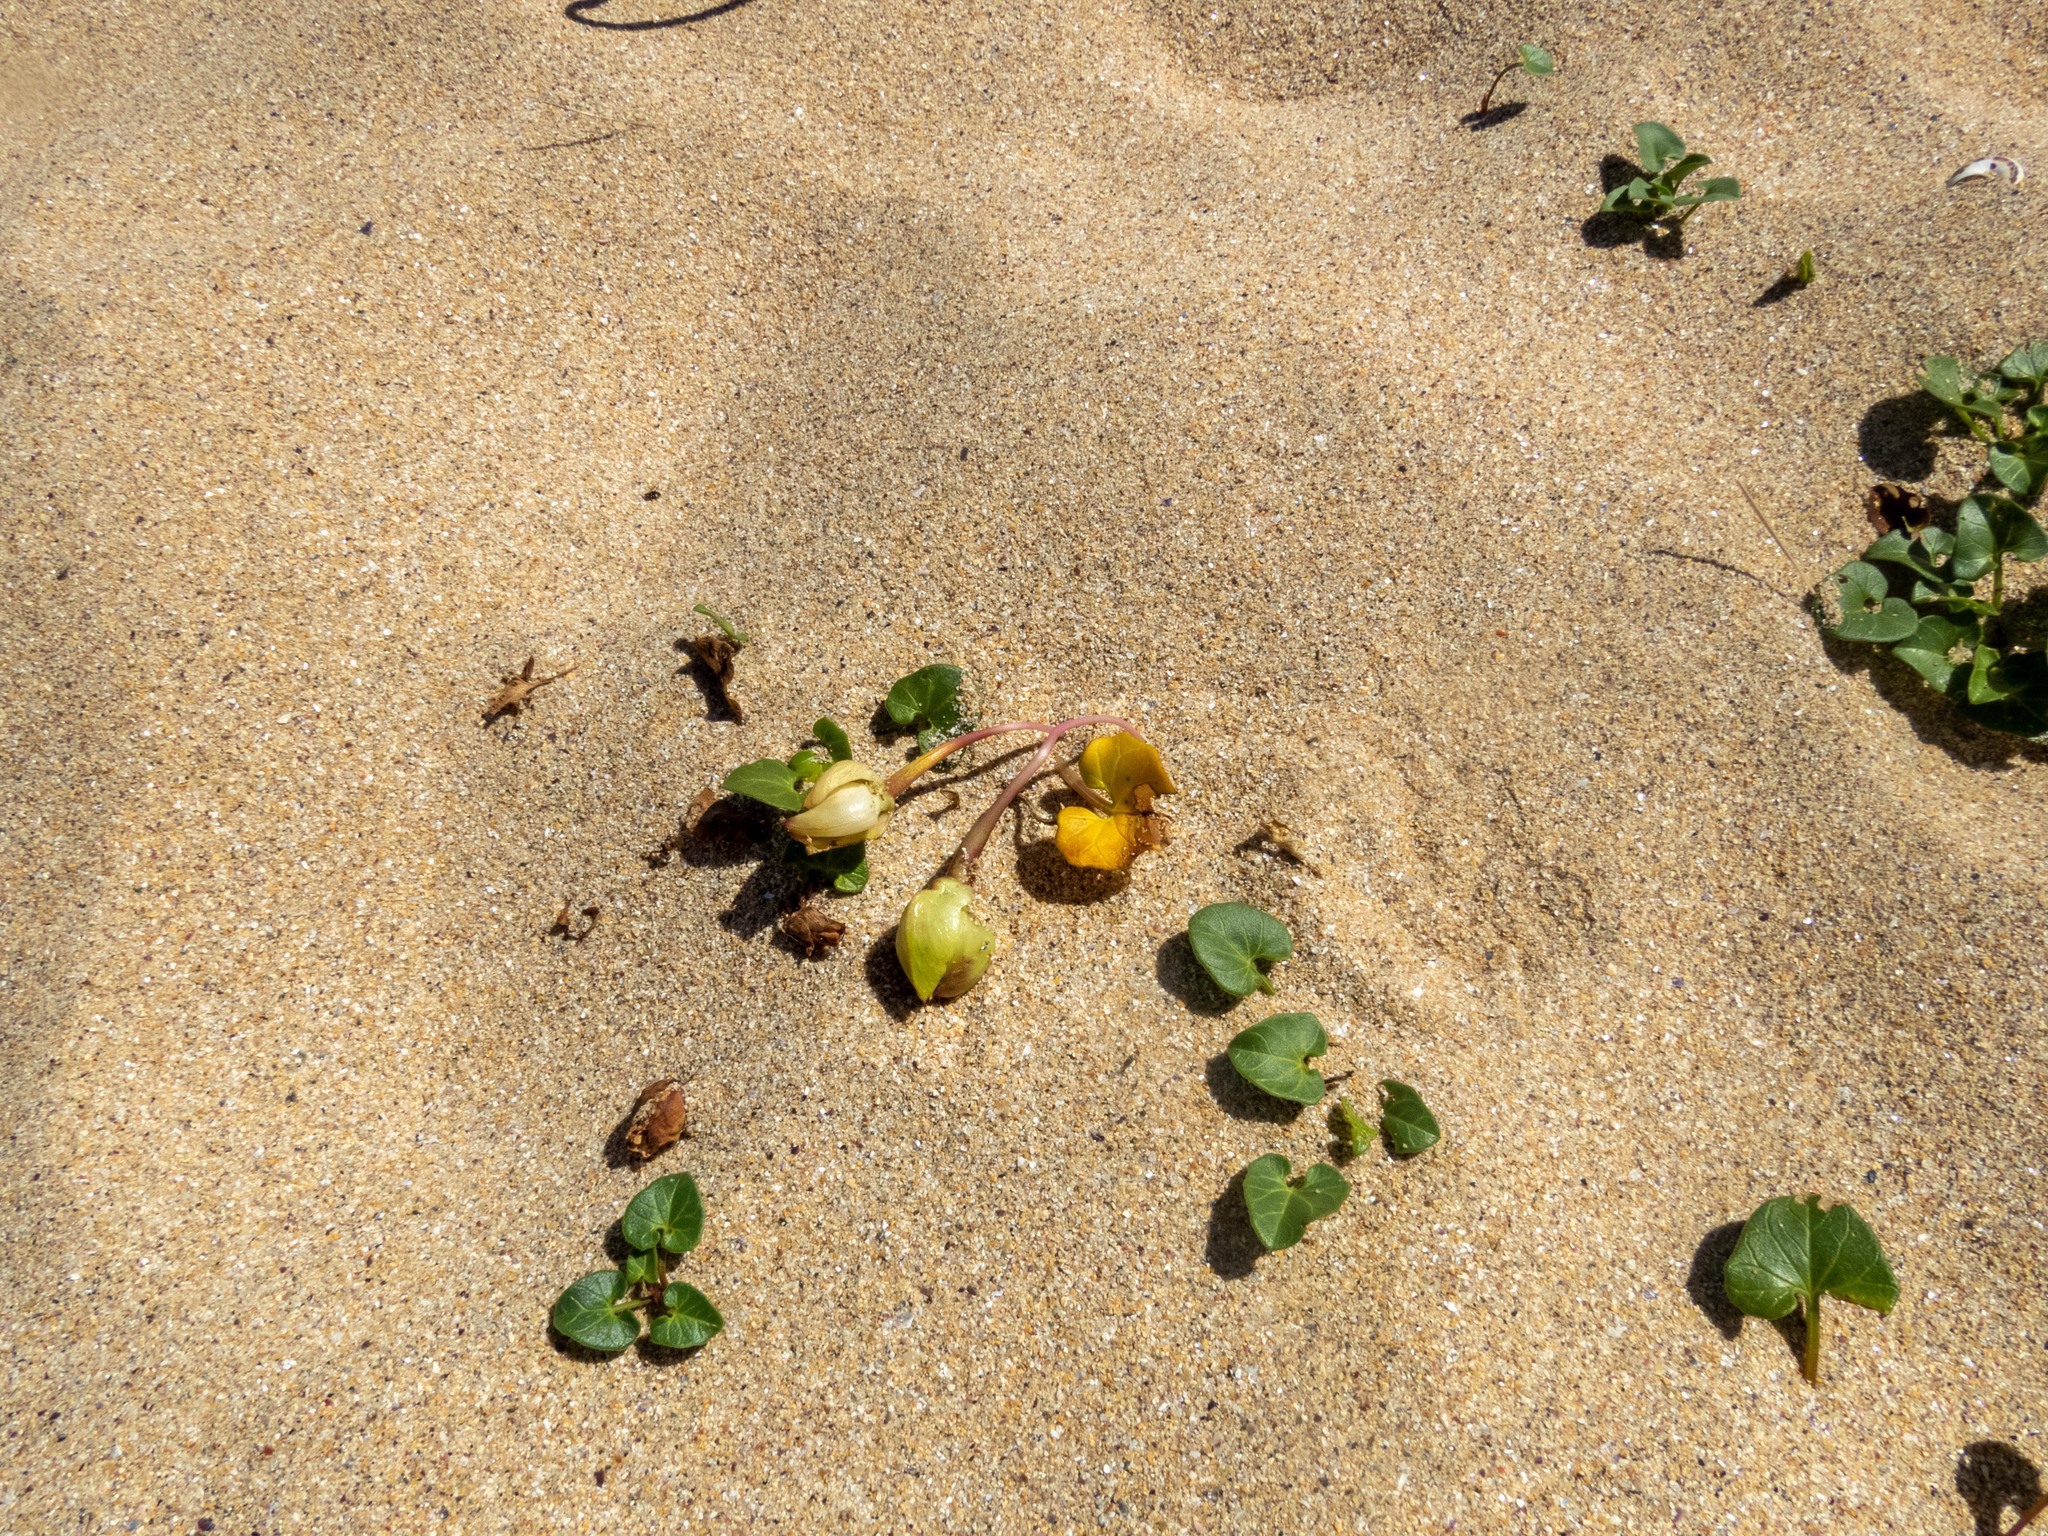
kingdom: Plantae
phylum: Tracheophyta
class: Magnoliopsida
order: Solanales
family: Convolvulaceae
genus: Calystegia
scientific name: Calystegia soldanella
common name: Sea bindweed
